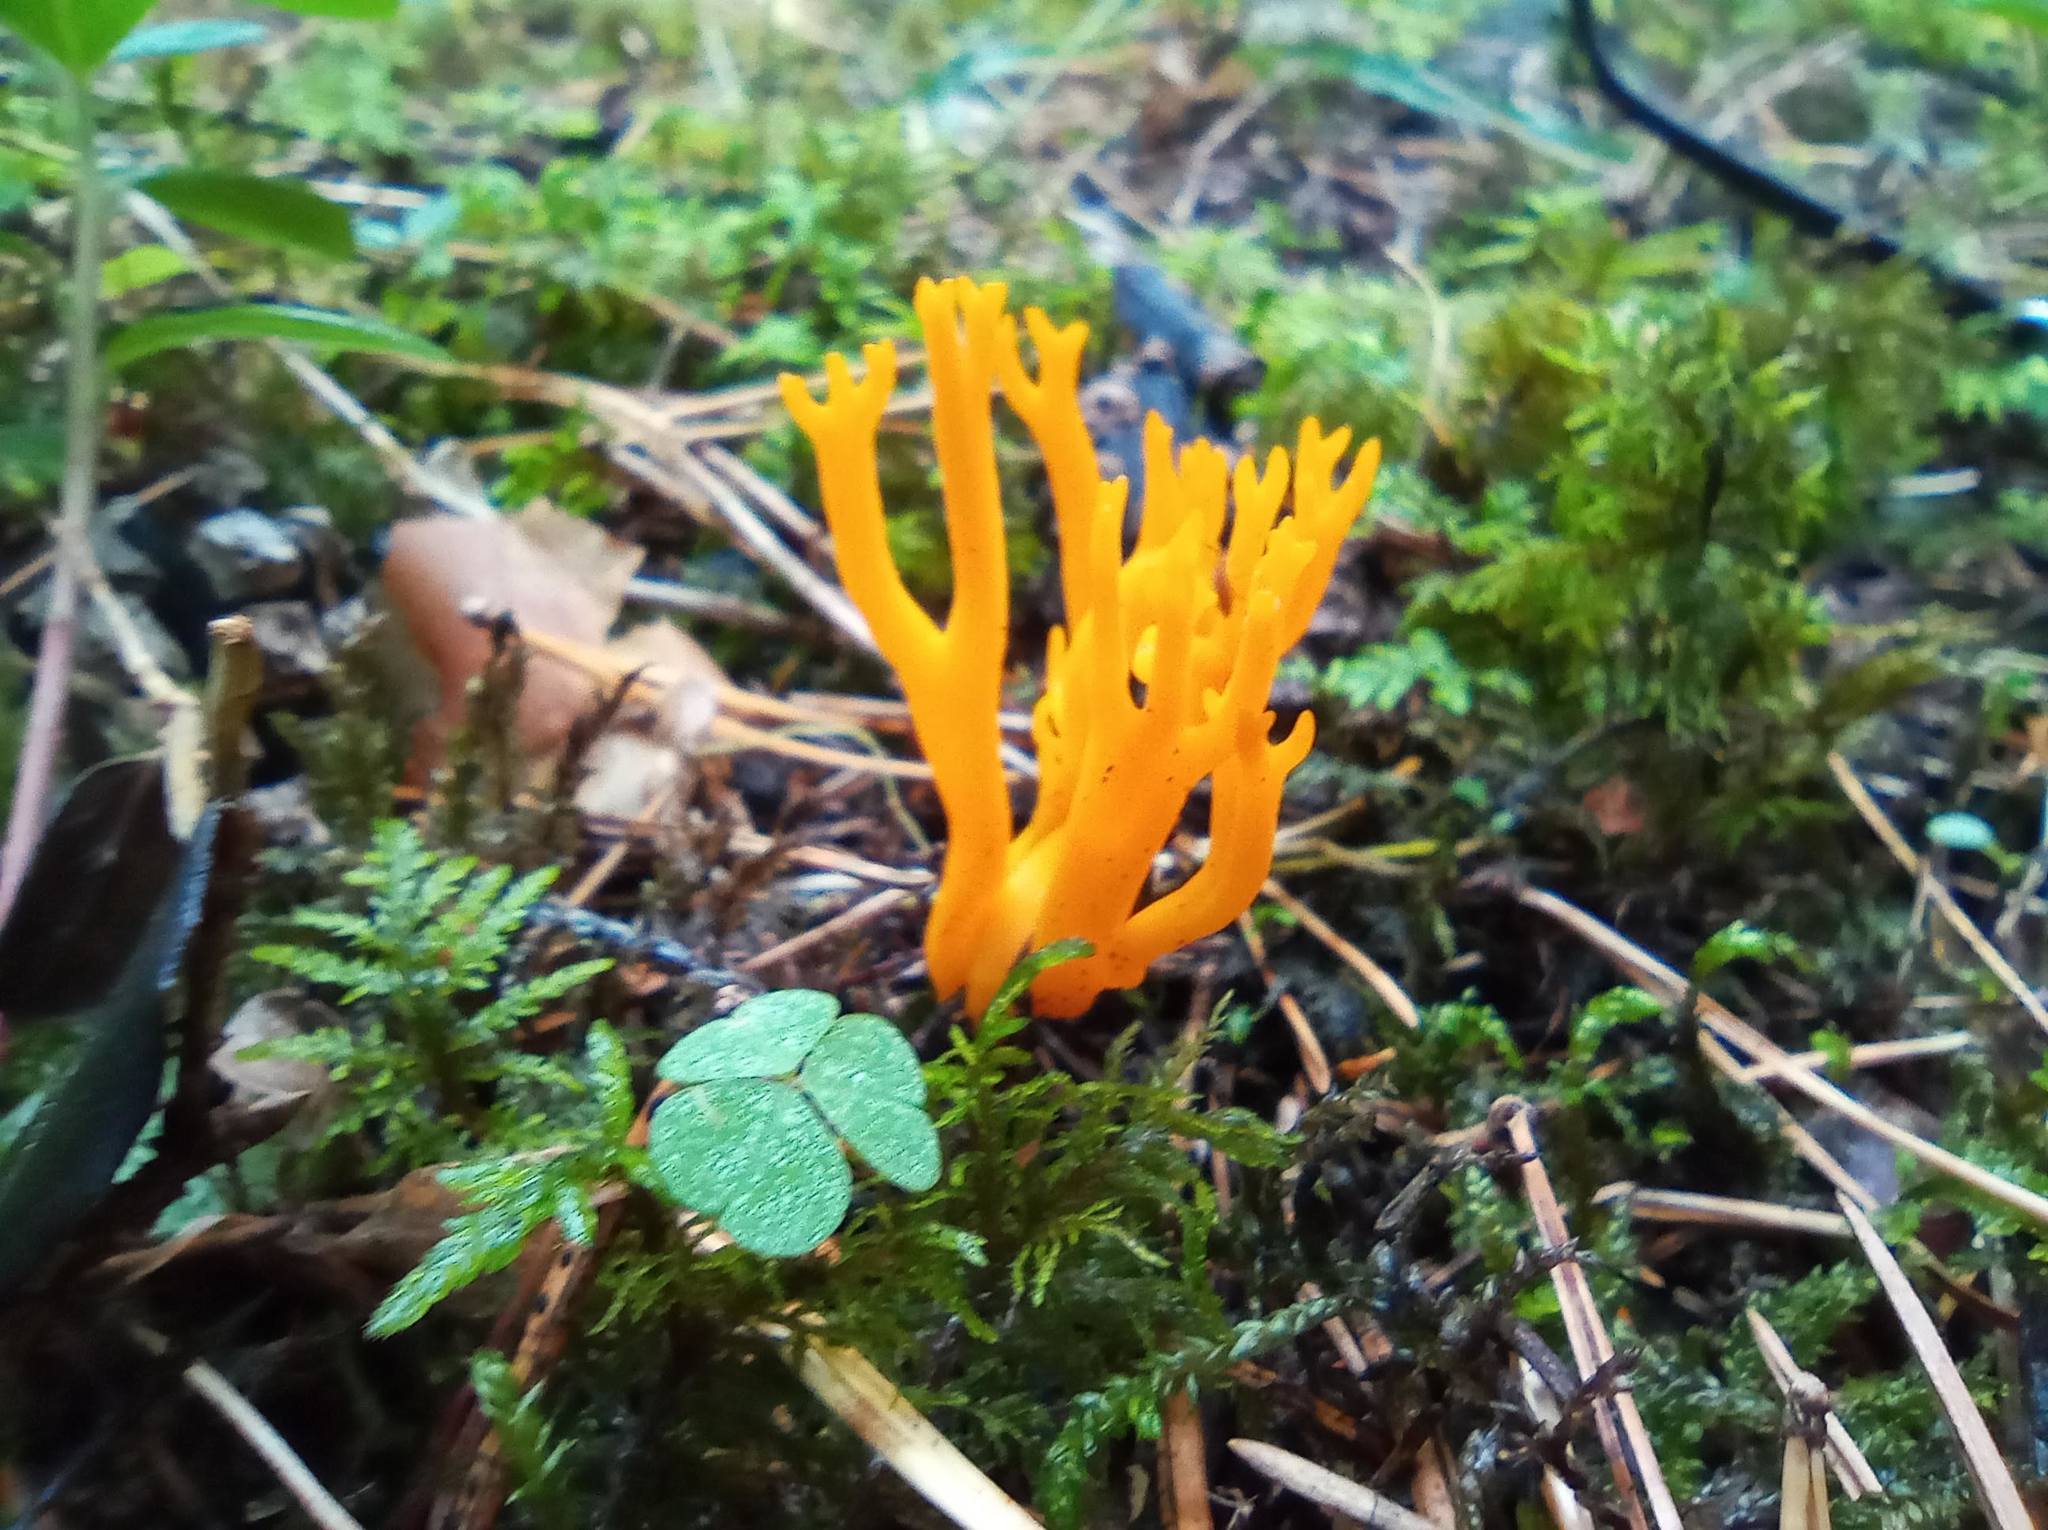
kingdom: Fungi
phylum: Basidiomycota
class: Dacrymycetes
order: Dacrymycetales
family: Dacrymycetaceae
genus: Calocera
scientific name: Calocera viscosa
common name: Yellow stagshorn
